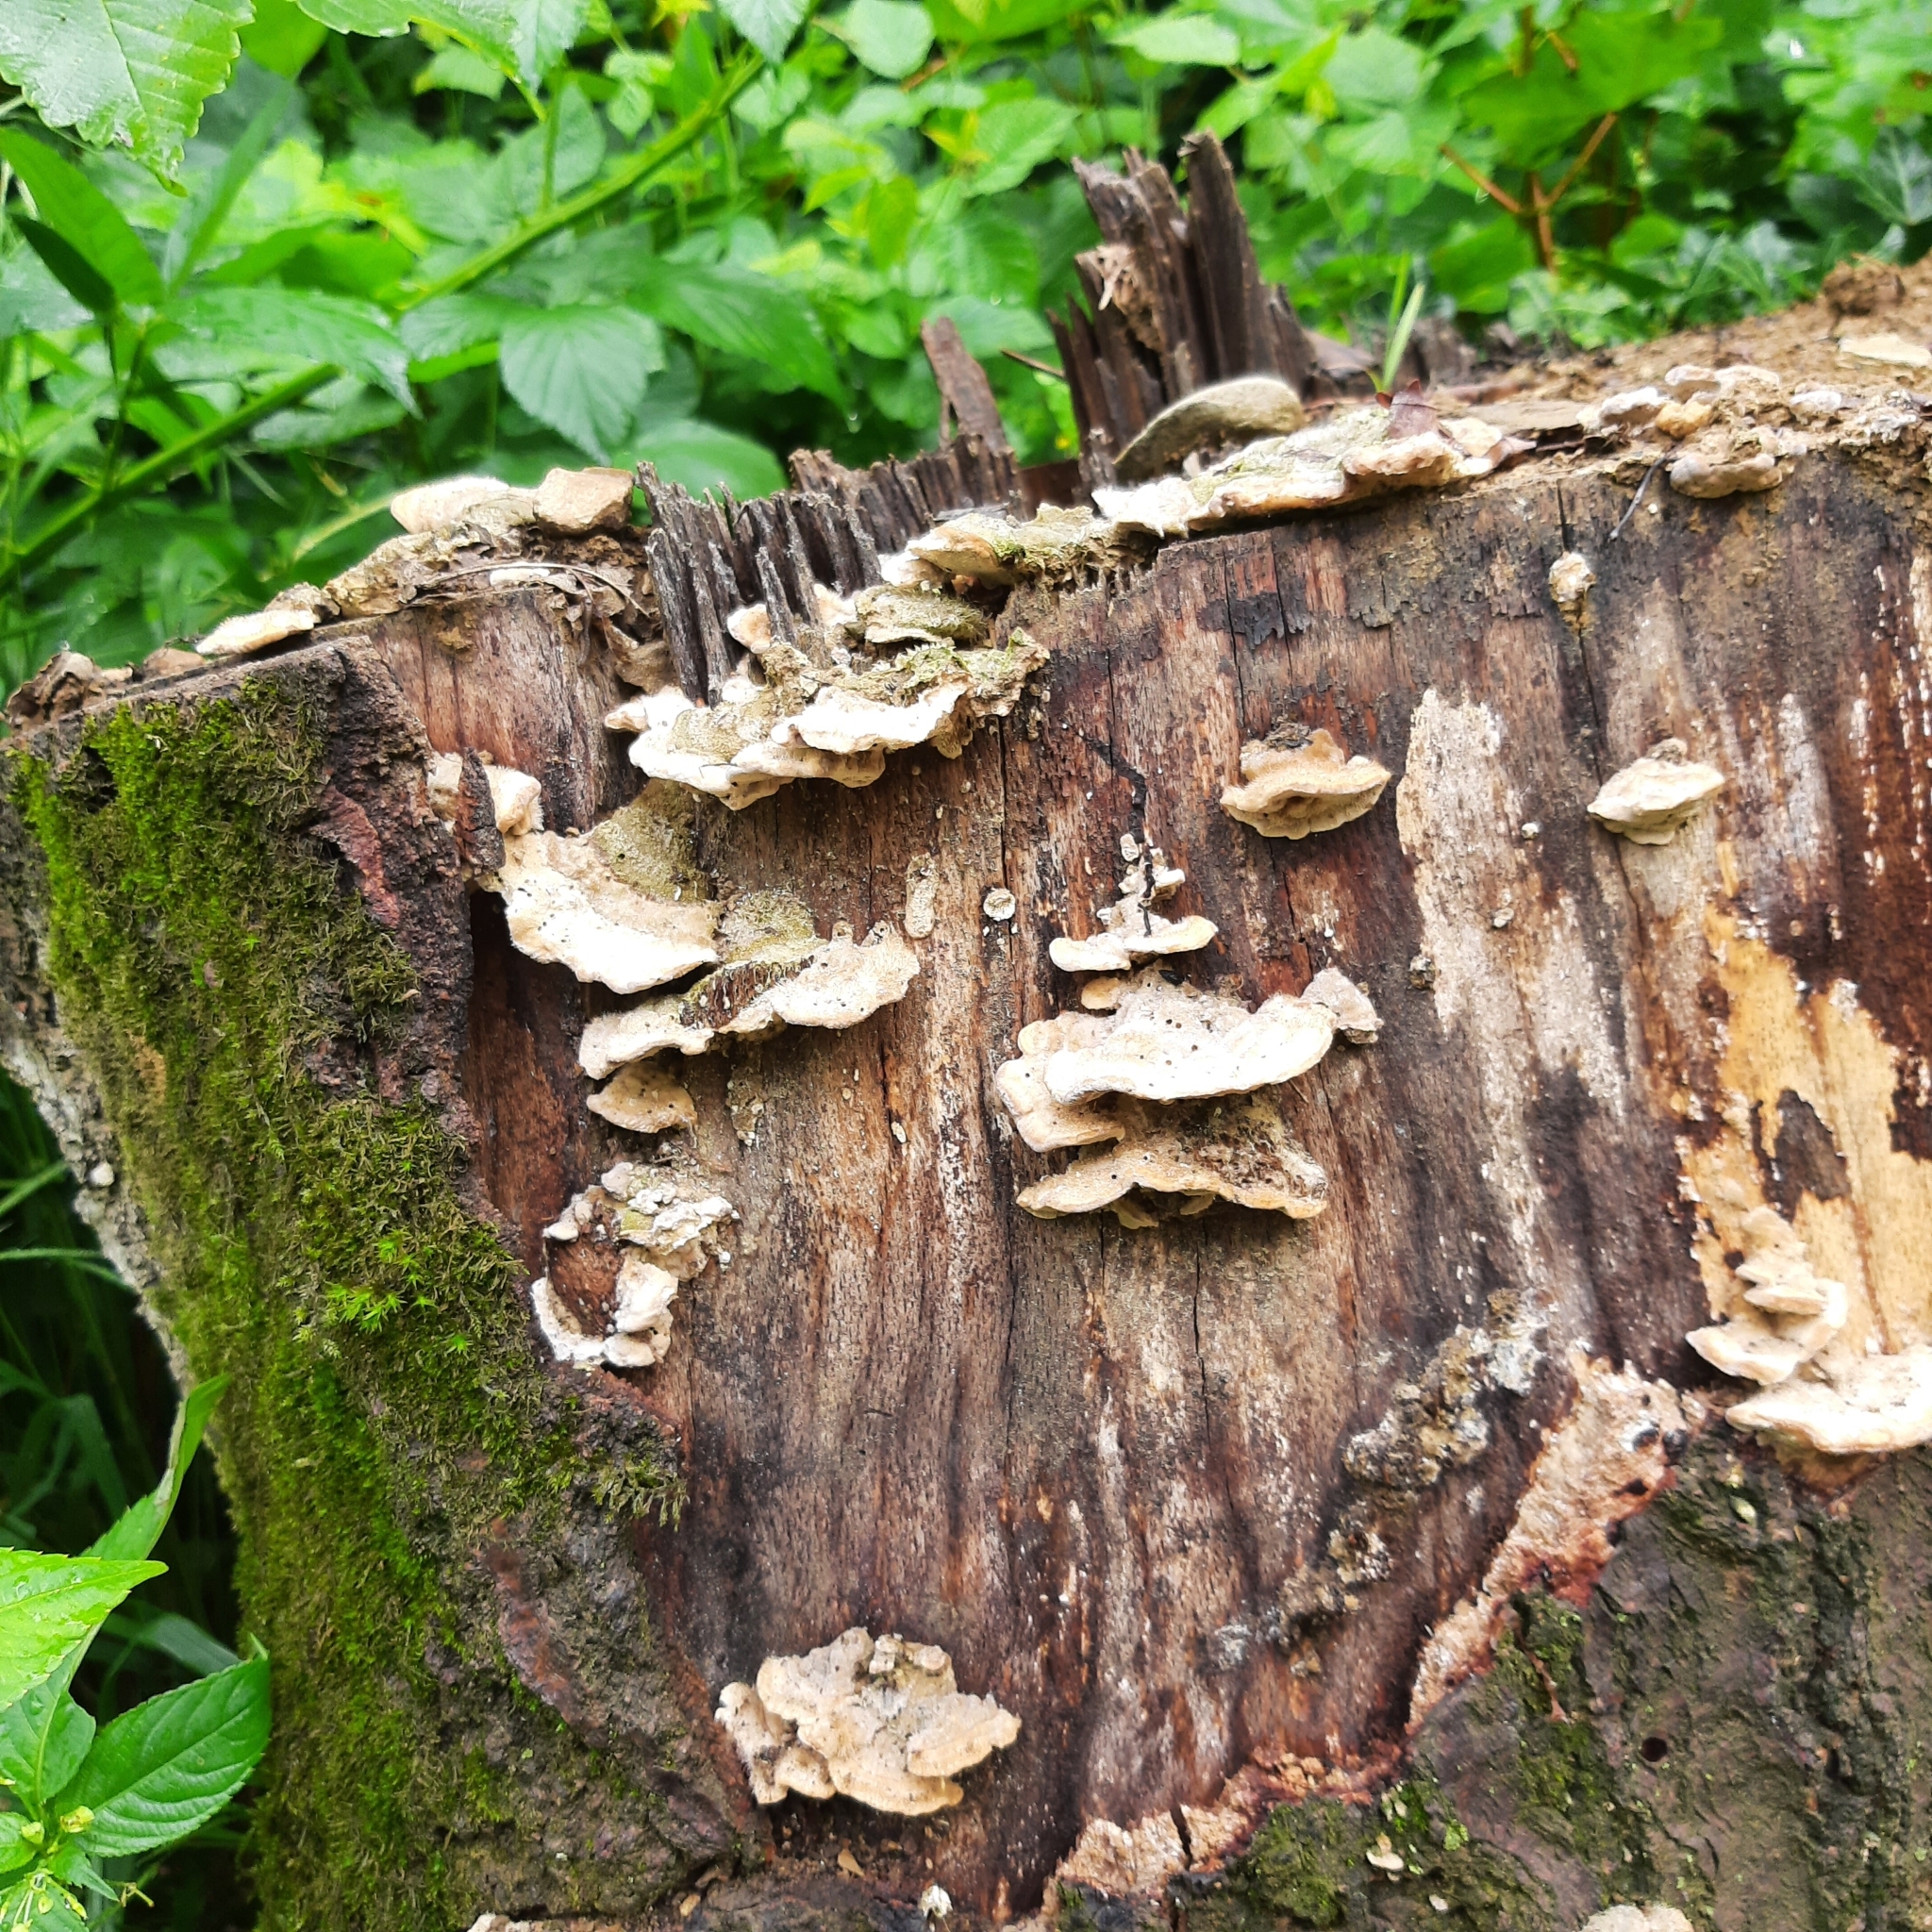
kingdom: Fungi
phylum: Basidiomycota
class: Agaricomycetes
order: Polyporales
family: Polyporaceae
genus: Trametes
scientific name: Trametes
